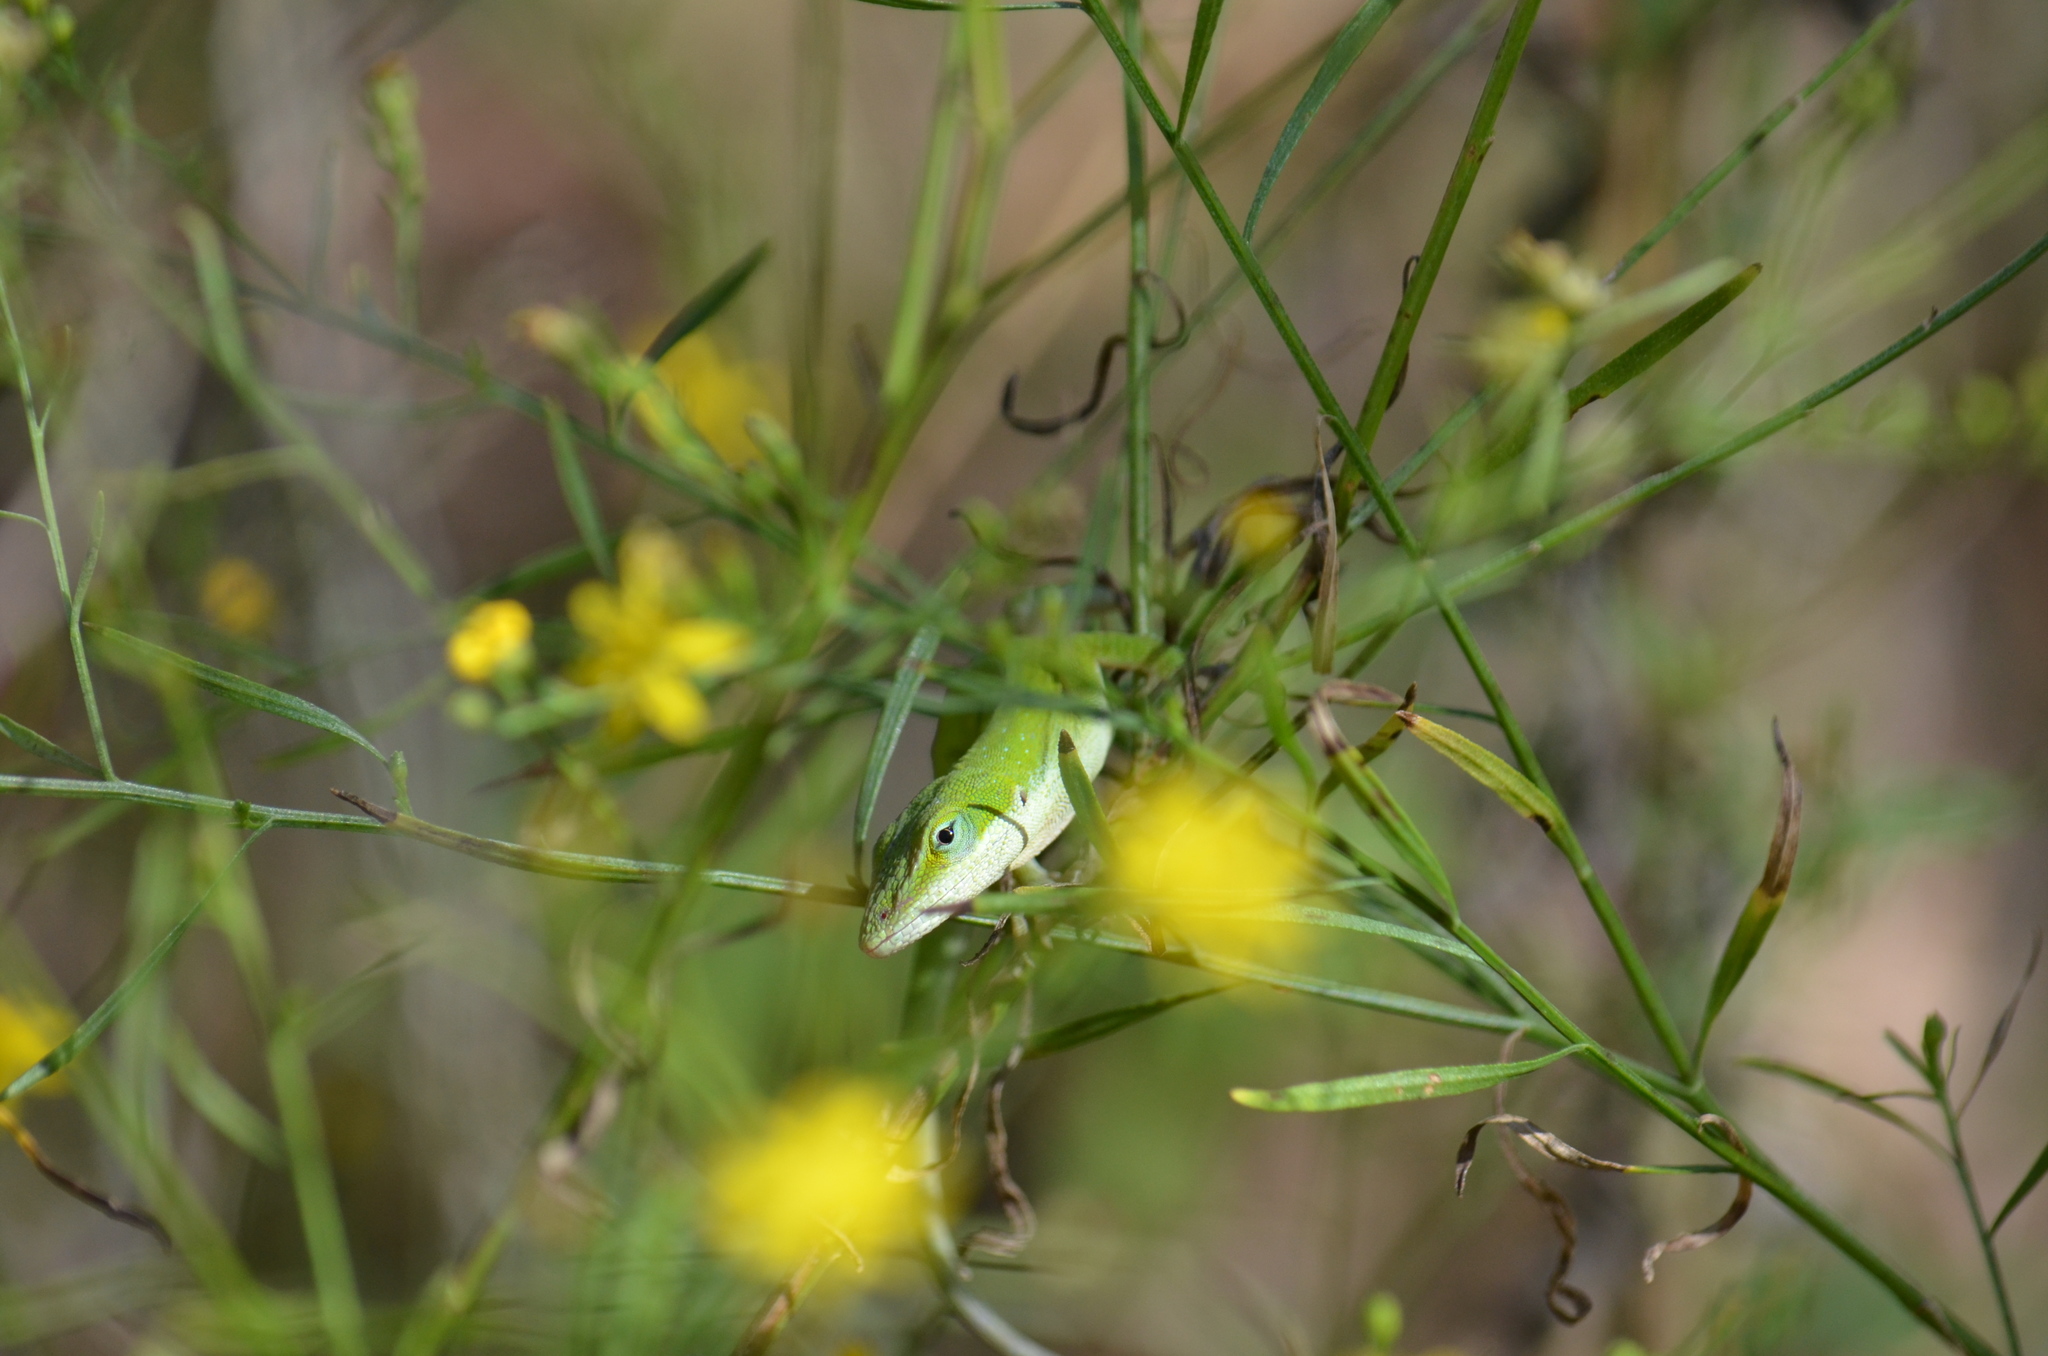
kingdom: Animalia
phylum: Chordata
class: Squamata
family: Dactyloidae
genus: Anolis
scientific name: Anolis carolinensis
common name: Green anole
